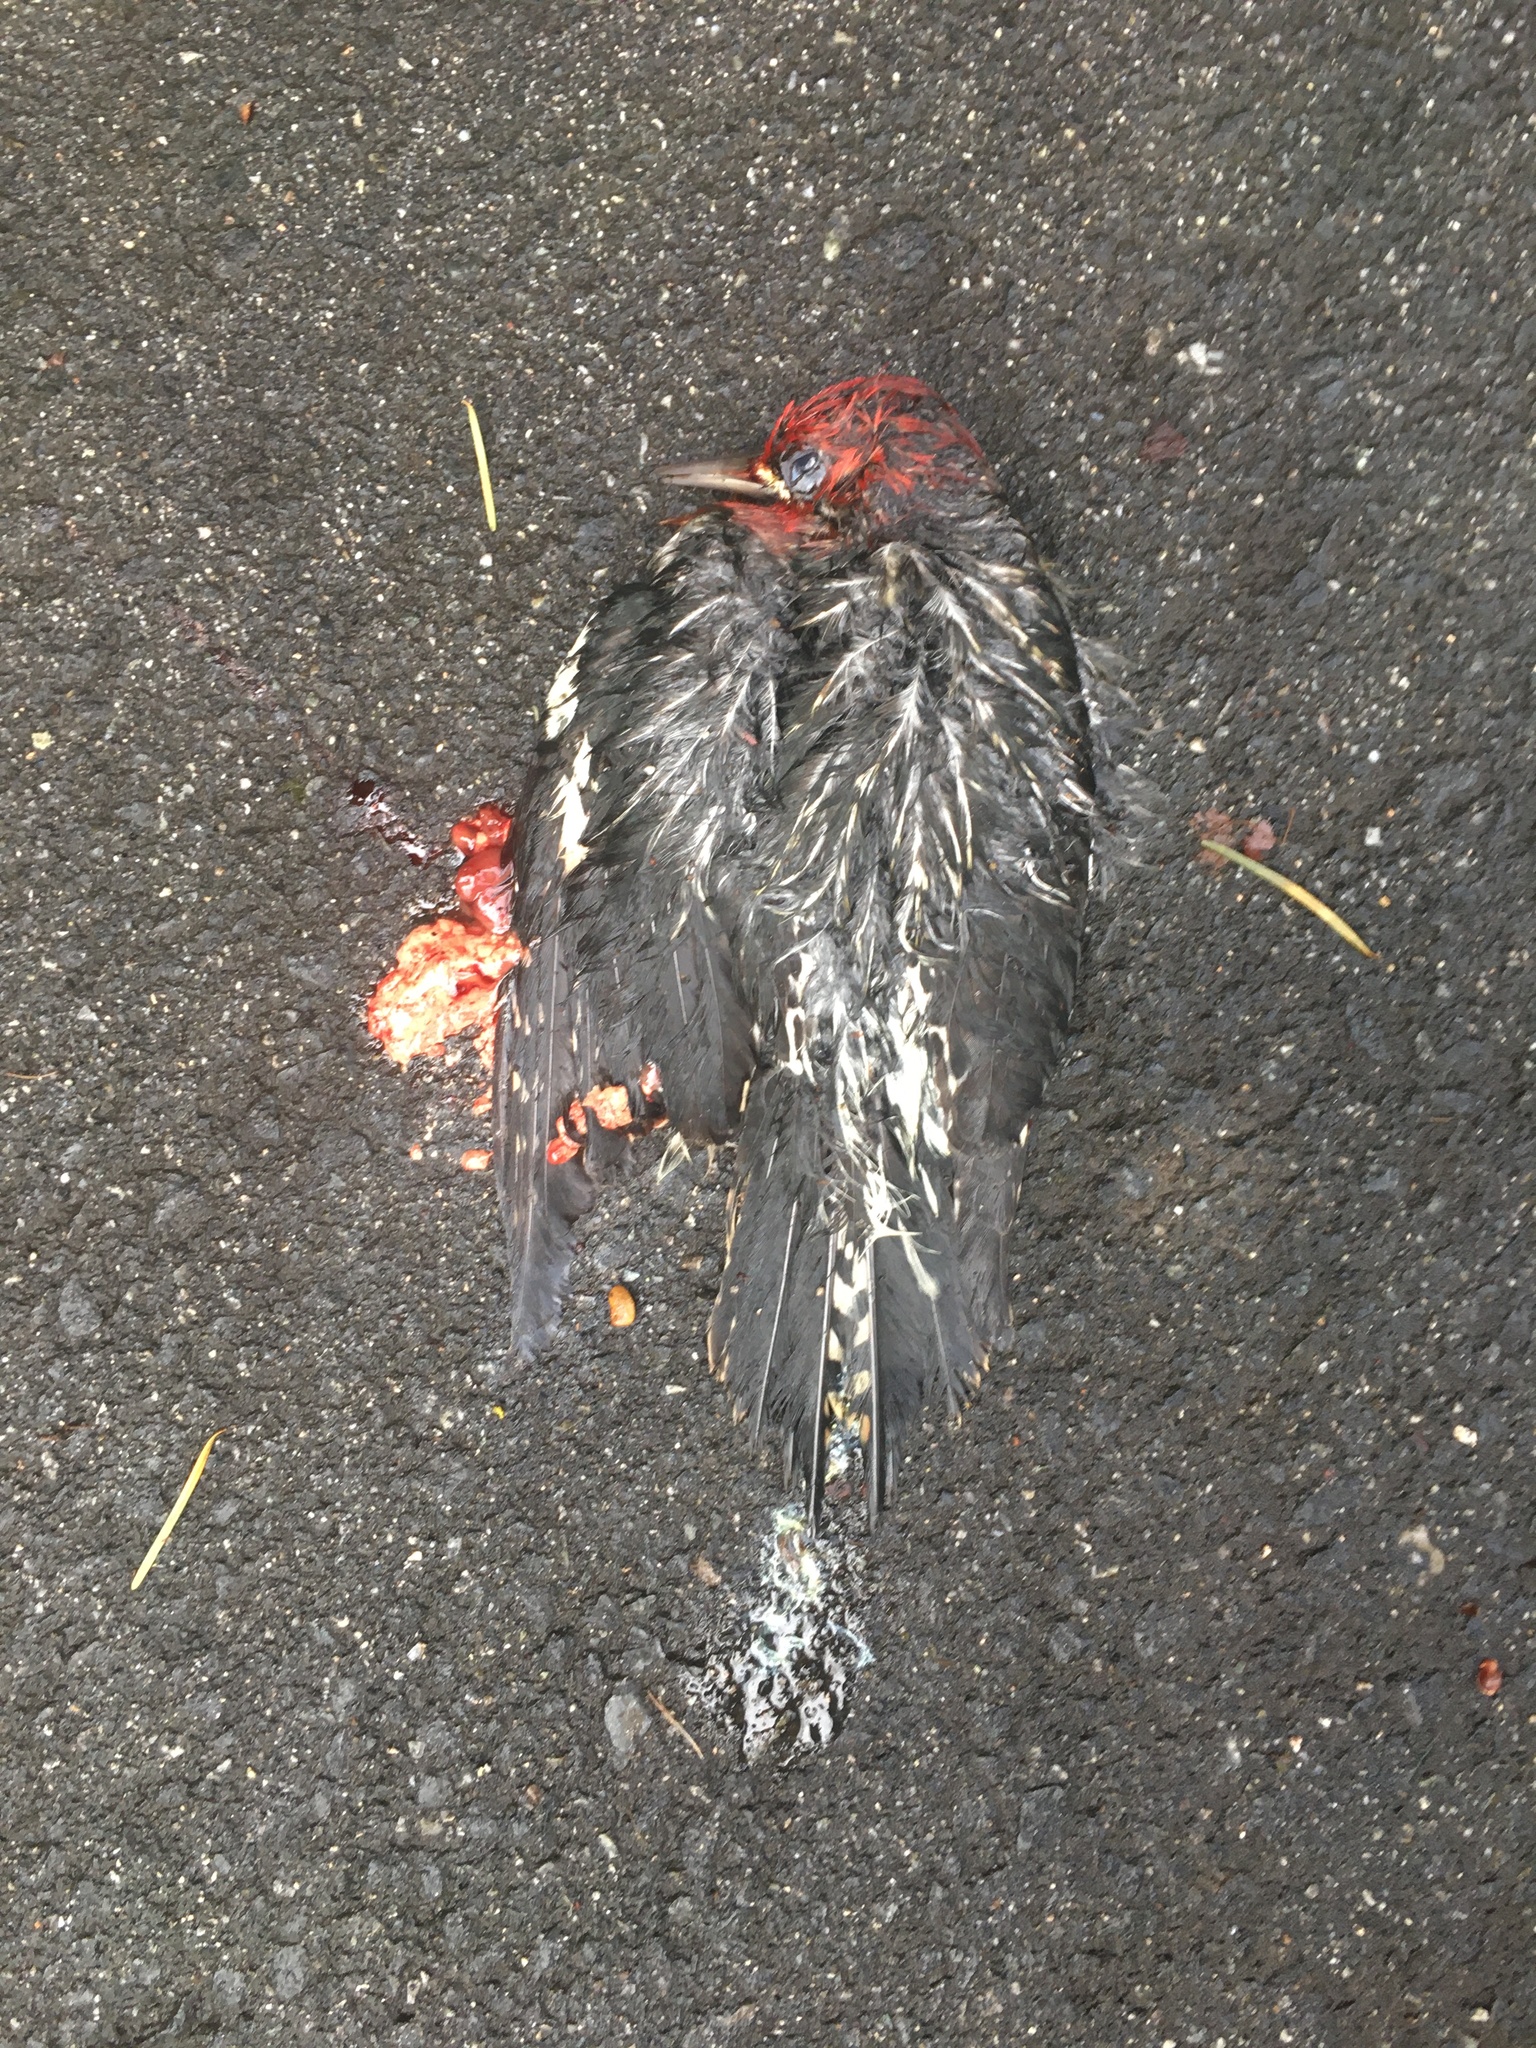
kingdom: Animalia
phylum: Chordata
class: Aves
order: Piciformes
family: Picidae
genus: Sphyrapicus
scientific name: Sphyrapicus ruber
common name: Red-breasted sapsucker
